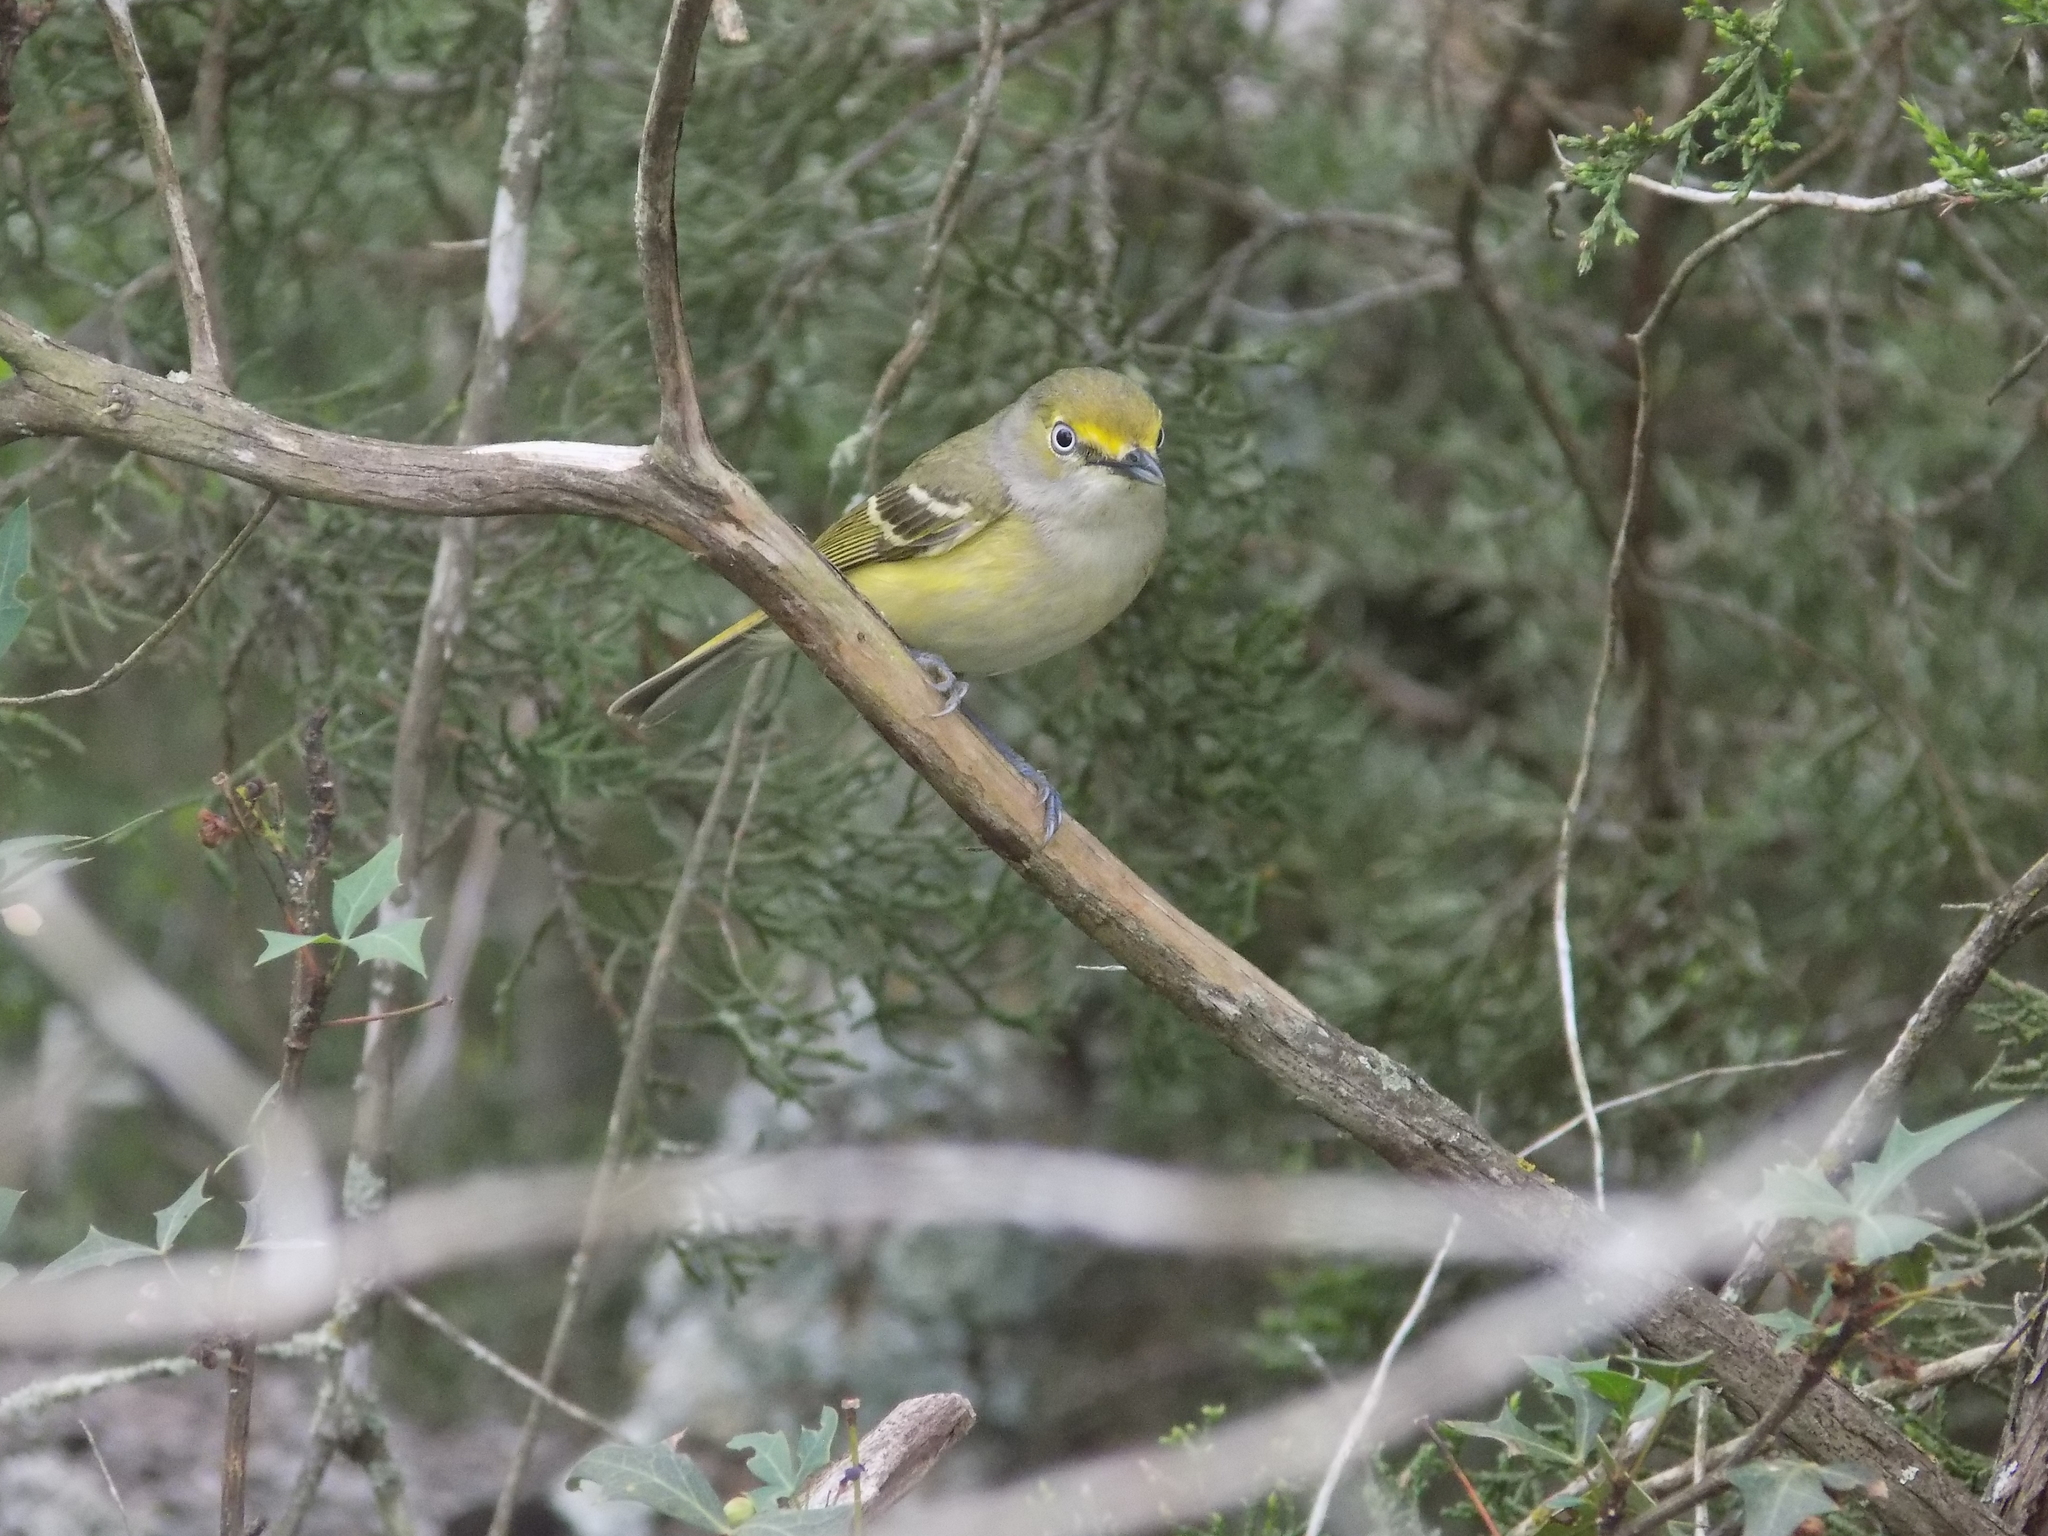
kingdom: Animalia
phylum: Chordata
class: Aves
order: Passeriformes
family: Vireonidae
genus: Vireo
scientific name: Vireo griseus
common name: White-eyed vireo
